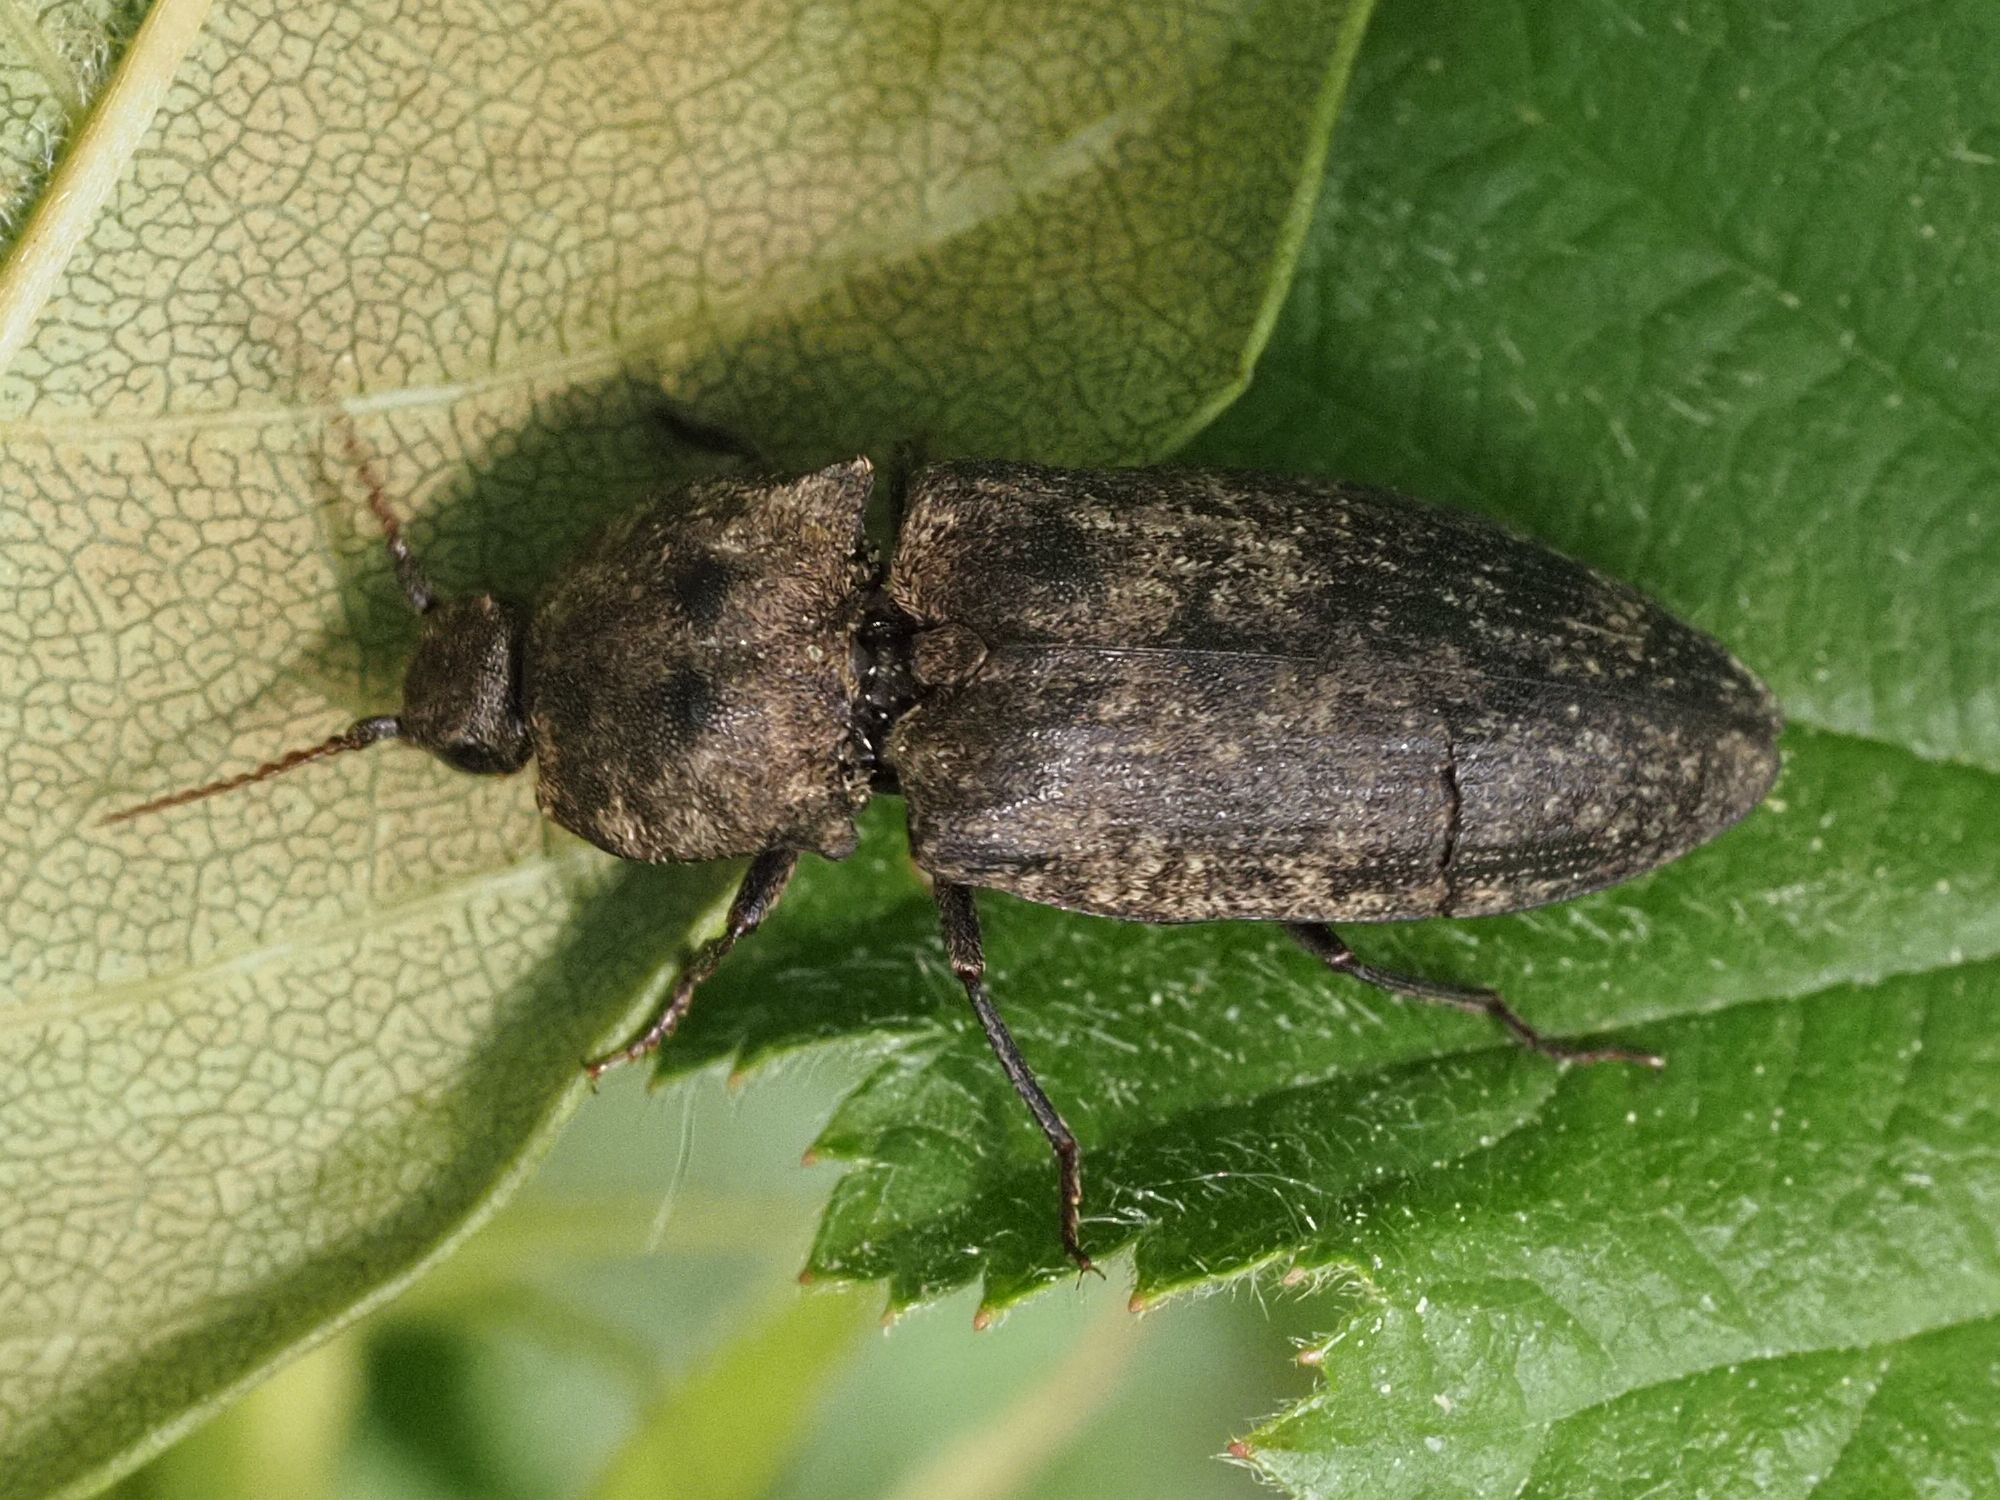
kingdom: Animalia
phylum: Arthropoda
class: Insecta
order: Coleoptera
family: Elateridae
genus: Agrypnus
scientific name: Agrypnus murinus
